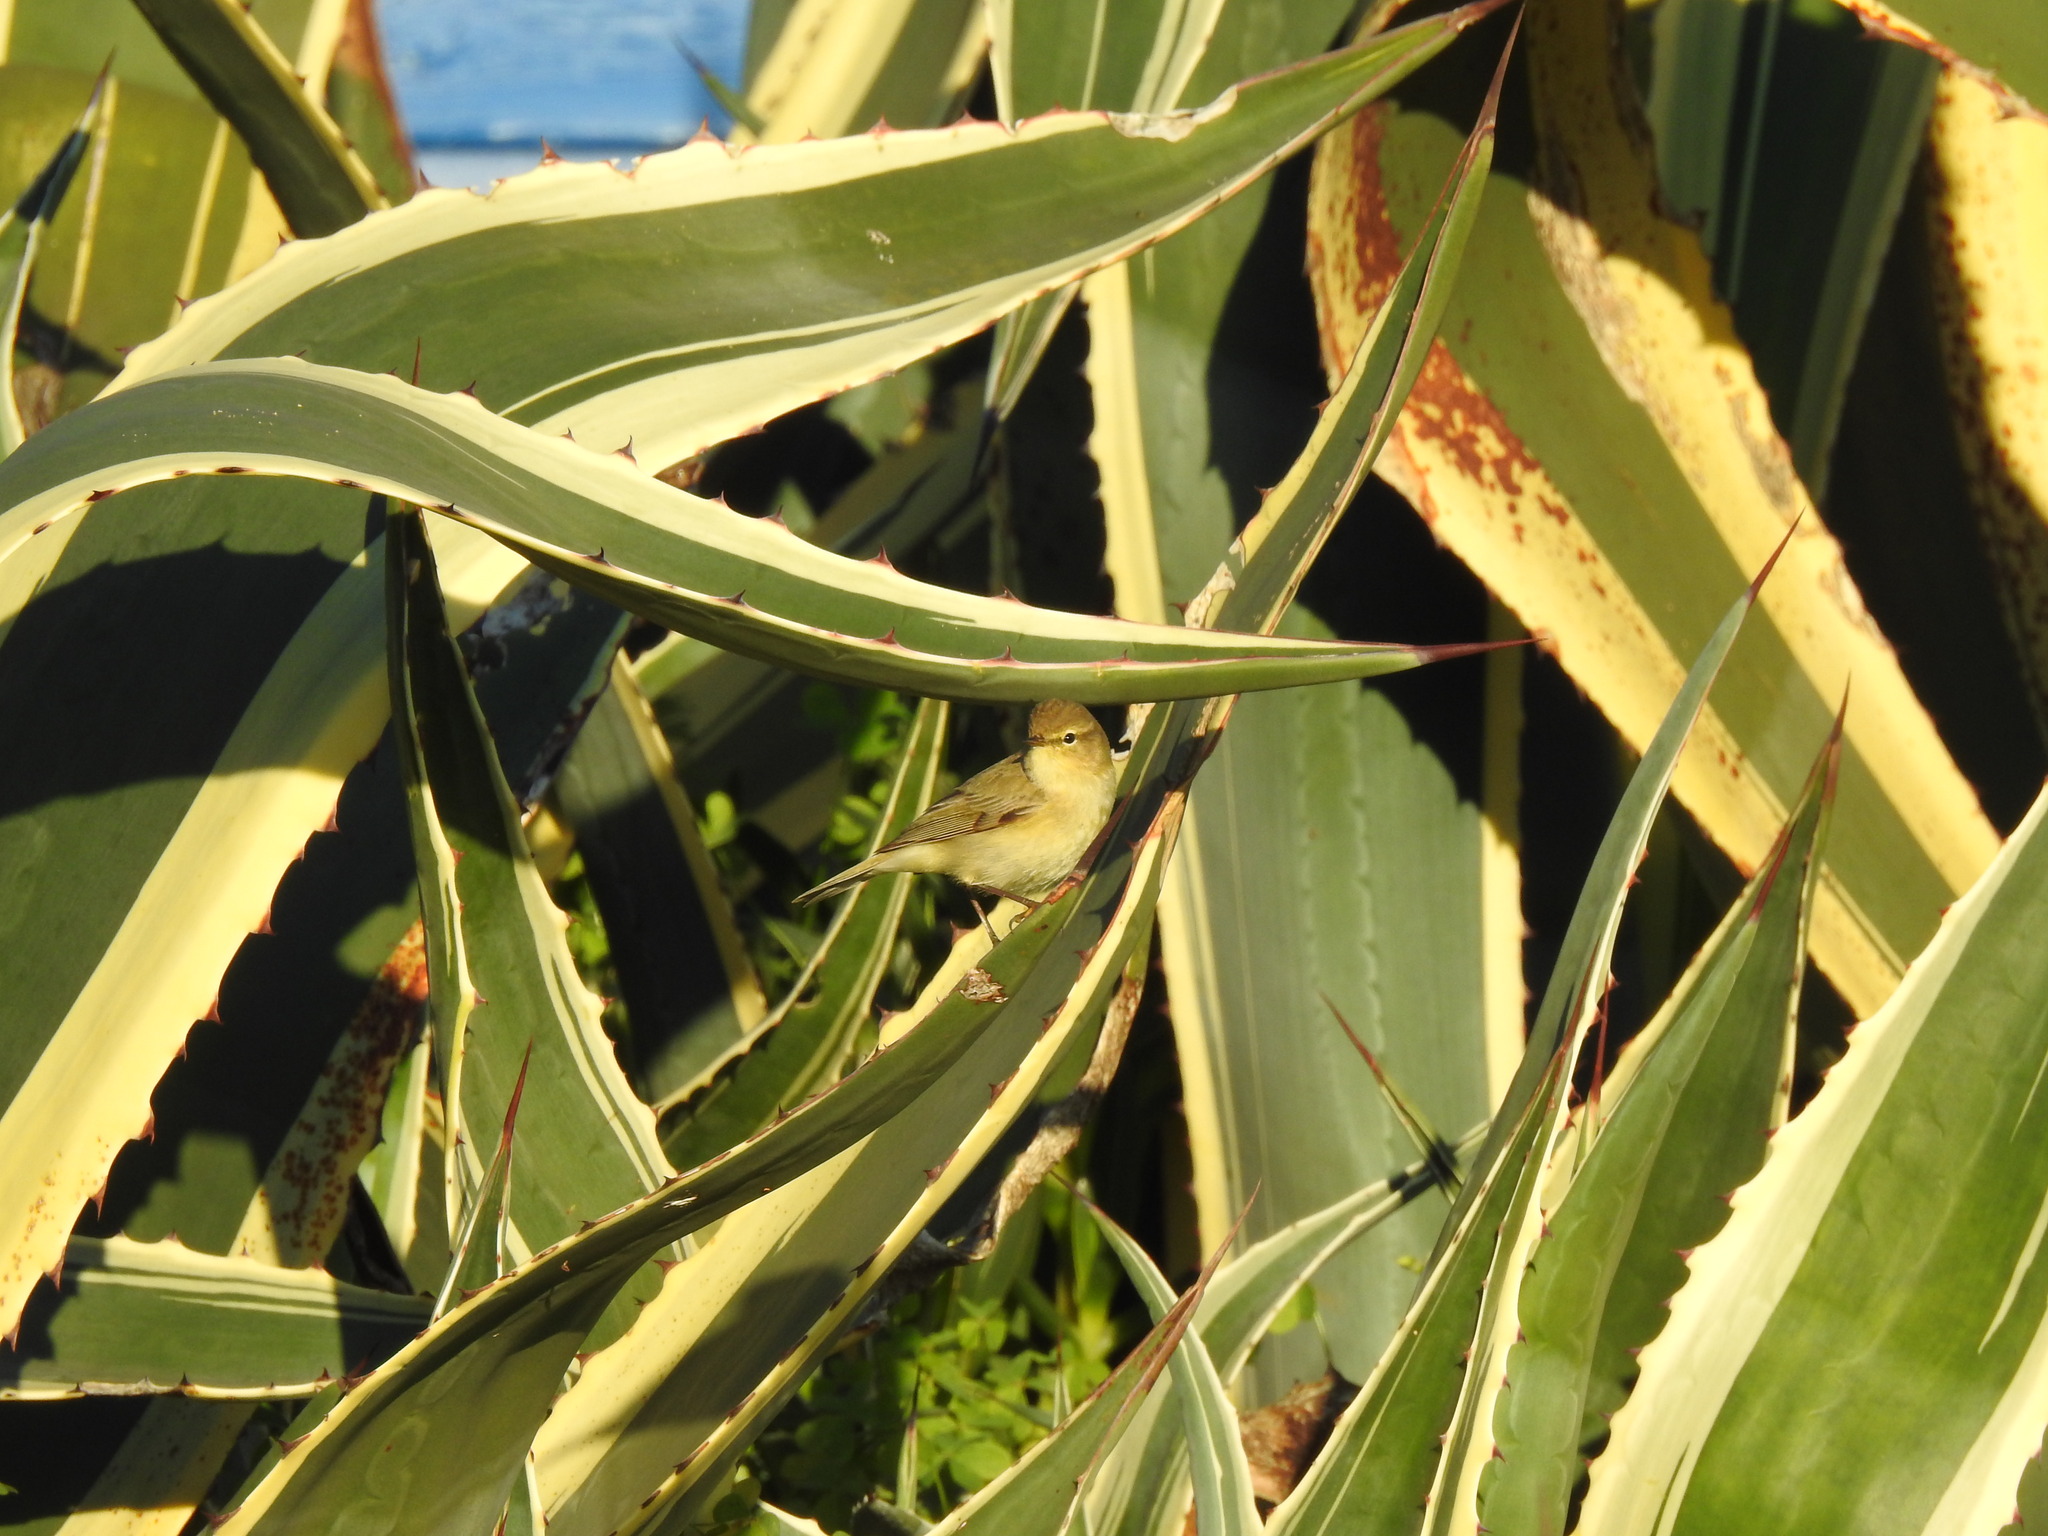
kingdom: Animalia
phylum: Chordata
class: Aves
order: Passeriformes
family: Phylloscopidae
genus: Phylloscopus
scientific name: Phylloscopus collybita
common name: Common chiffchaff
